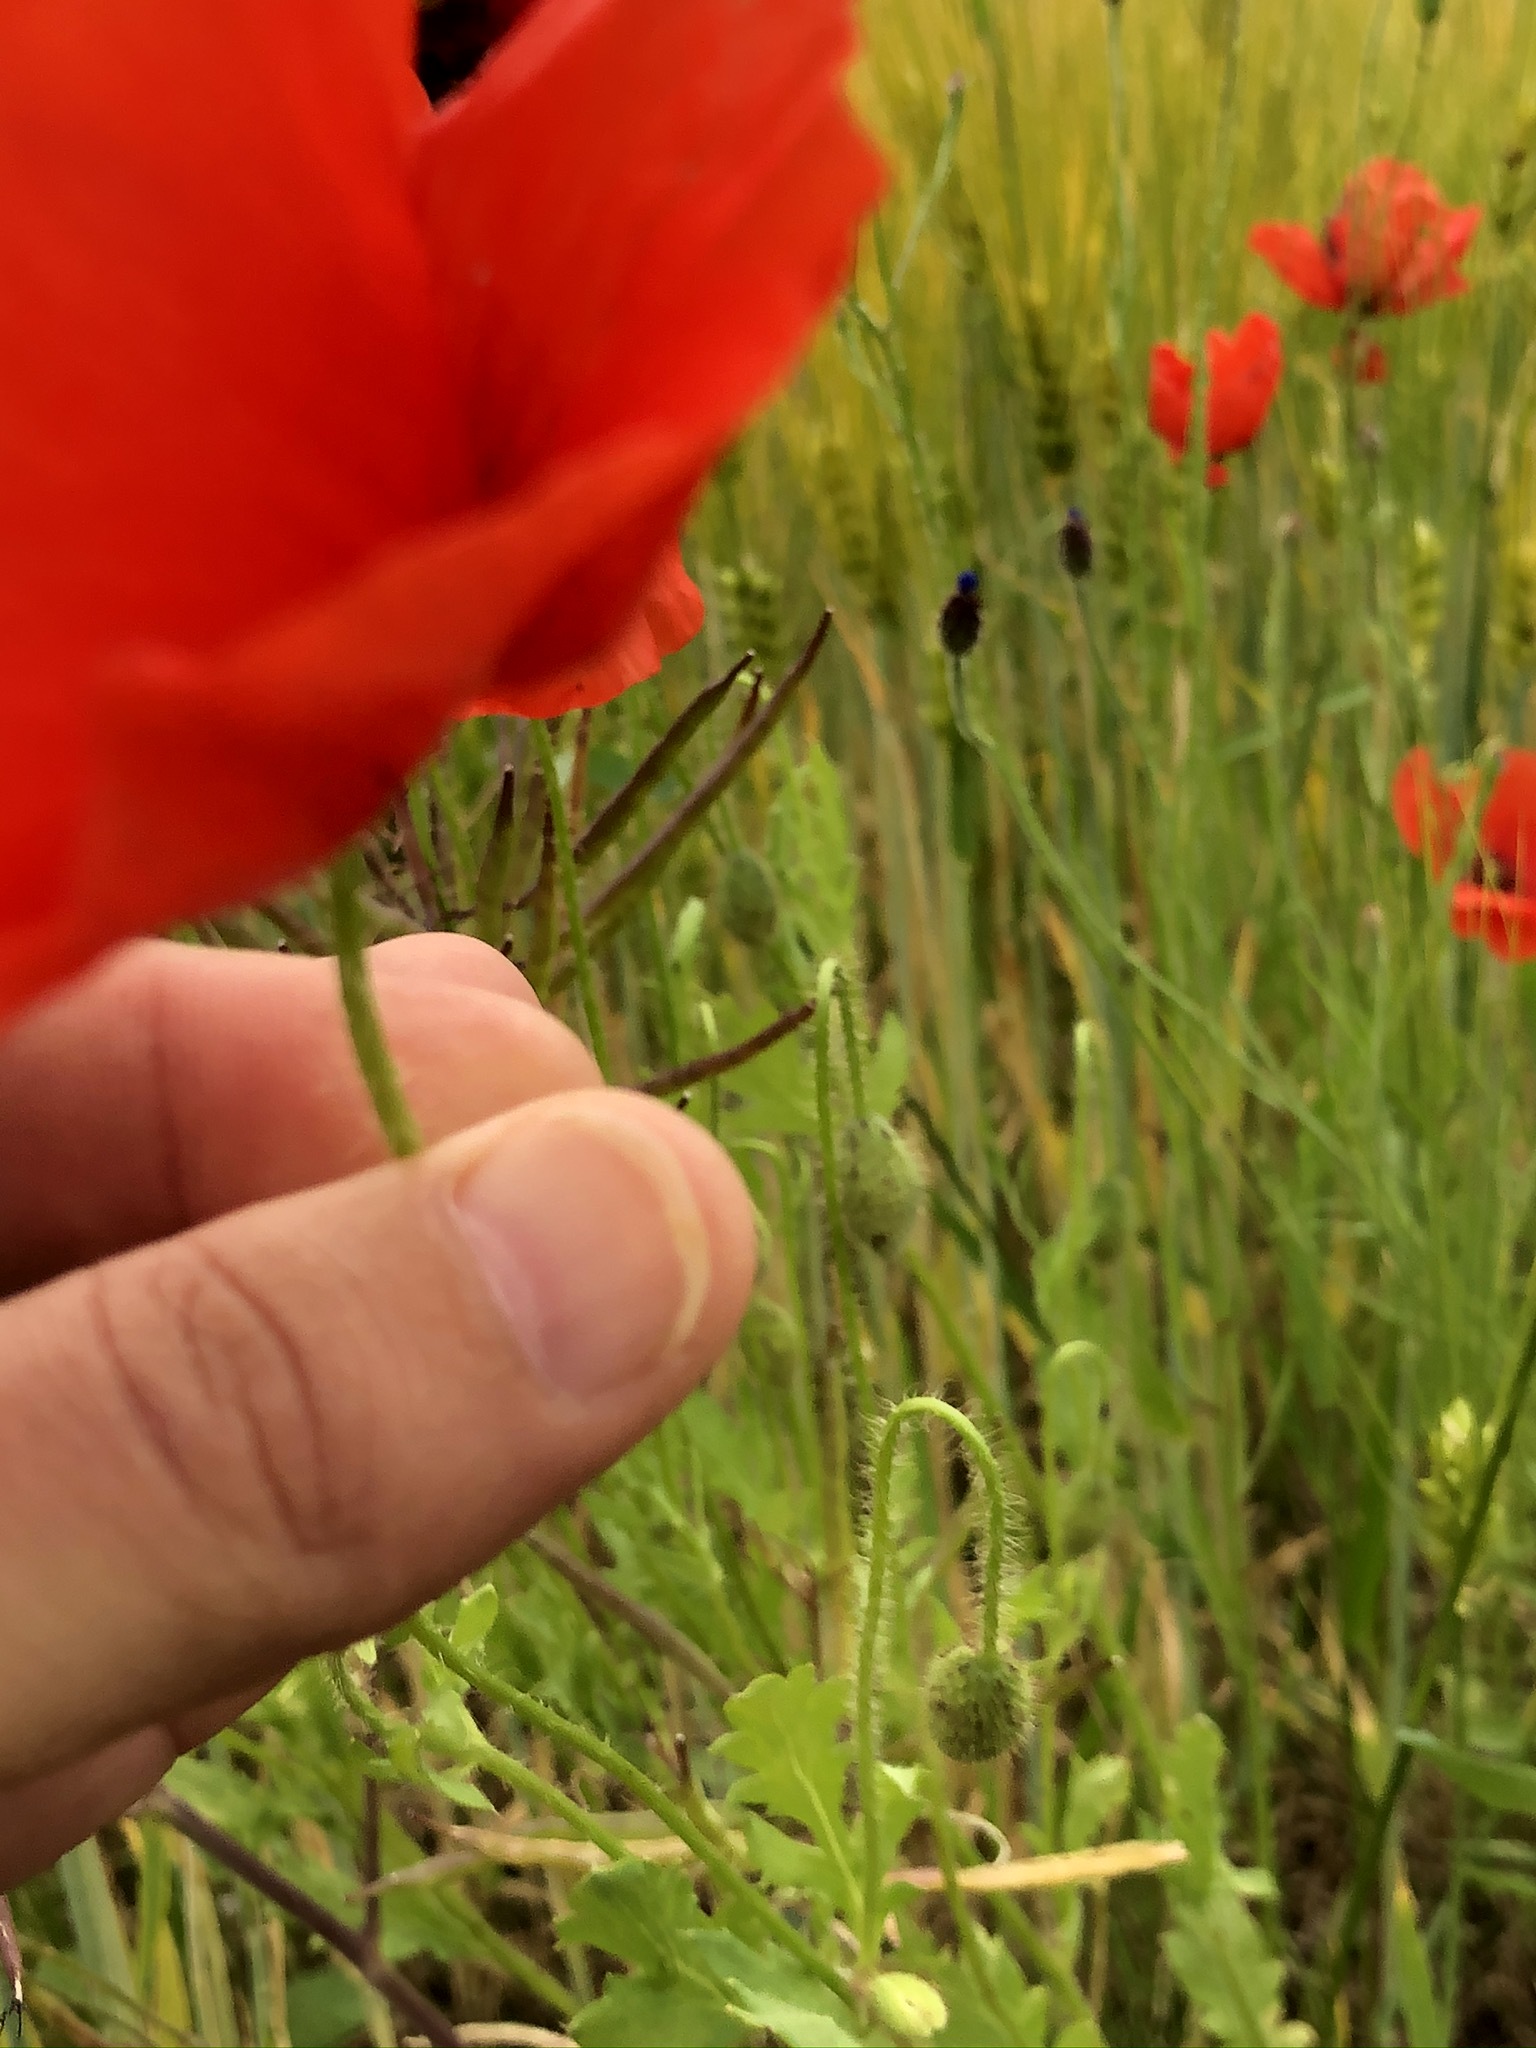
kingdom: Plantae
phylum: Tracheophyta
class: Magnoliopsida
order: Ranunculales
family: Papaveraceae
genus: Papaver
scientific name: Papaver rhoeas
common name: Corn poppy
